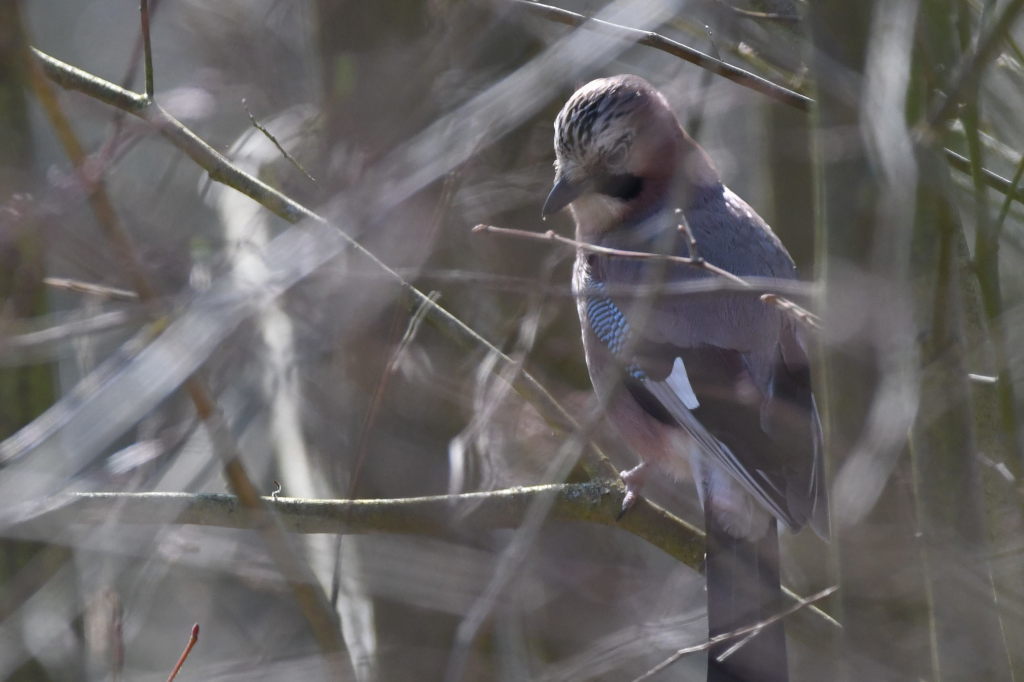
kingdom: Animalia
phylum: Chordata
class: Aves
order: Passeriformes
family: Corvidae
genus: Garrulus
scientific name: Garrulus glandarius
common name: Eurasian jay
